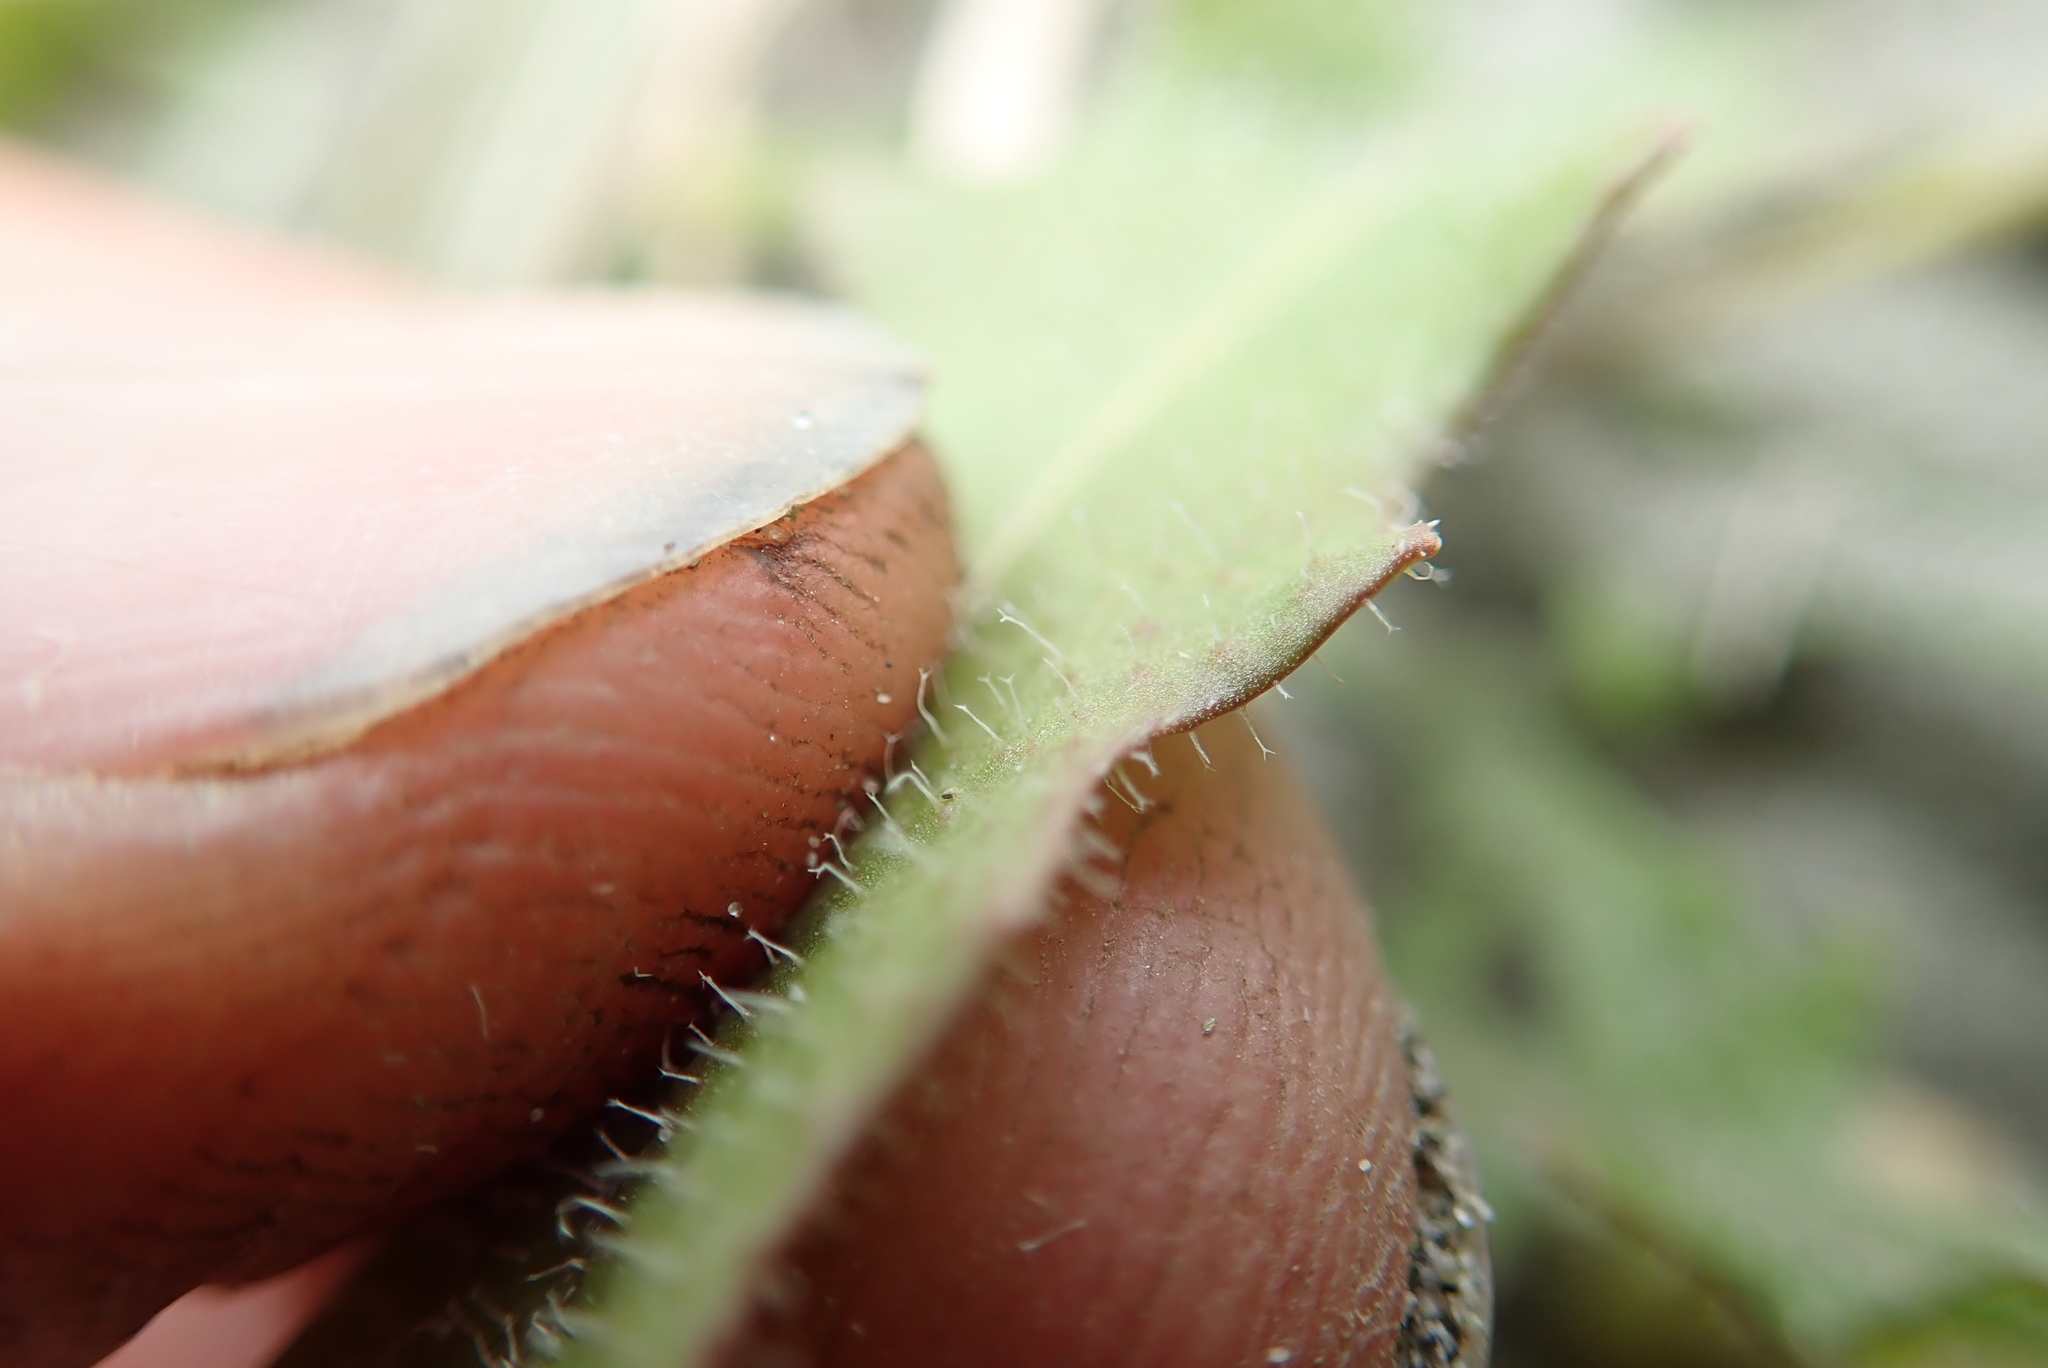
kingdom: Plantae
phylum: Tracheophyta
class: Magnoliopsida
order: Asterales
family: Asteraceae
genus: Thrincia
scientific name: Thrincia saxatilis
